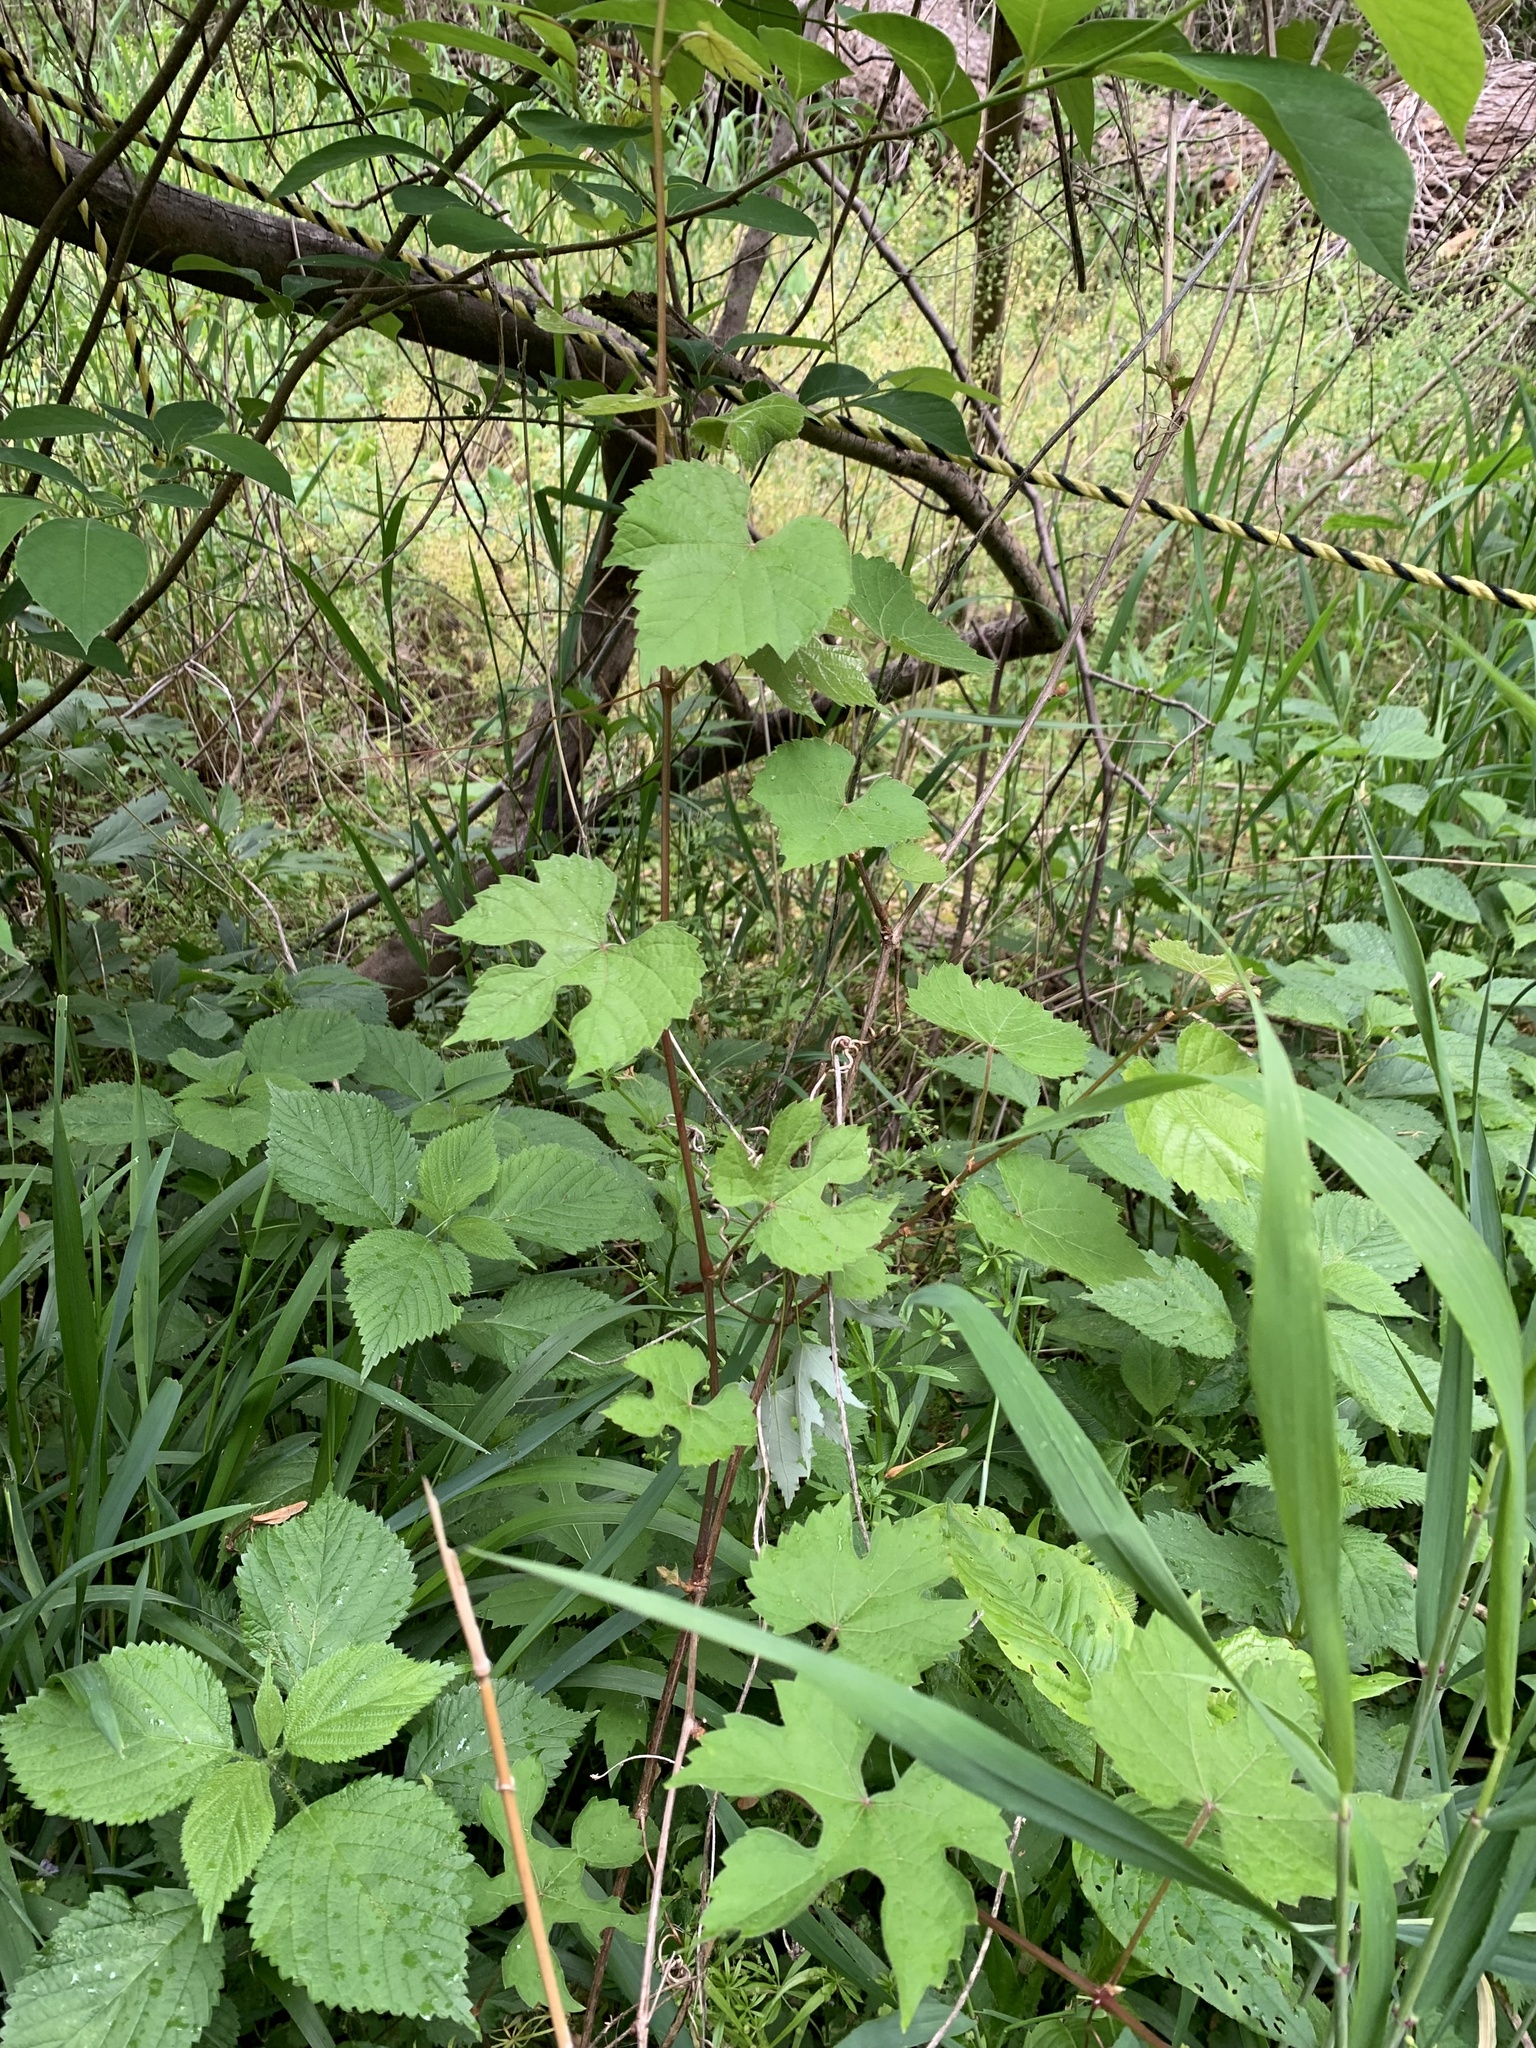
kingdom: Plantae
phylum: Tracheophyta
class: Magnoliopsida
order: Vitales
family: Vitaceae
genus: Ampelopsis
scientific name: Ampelopsis glandulosa
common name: Amur peppervine
